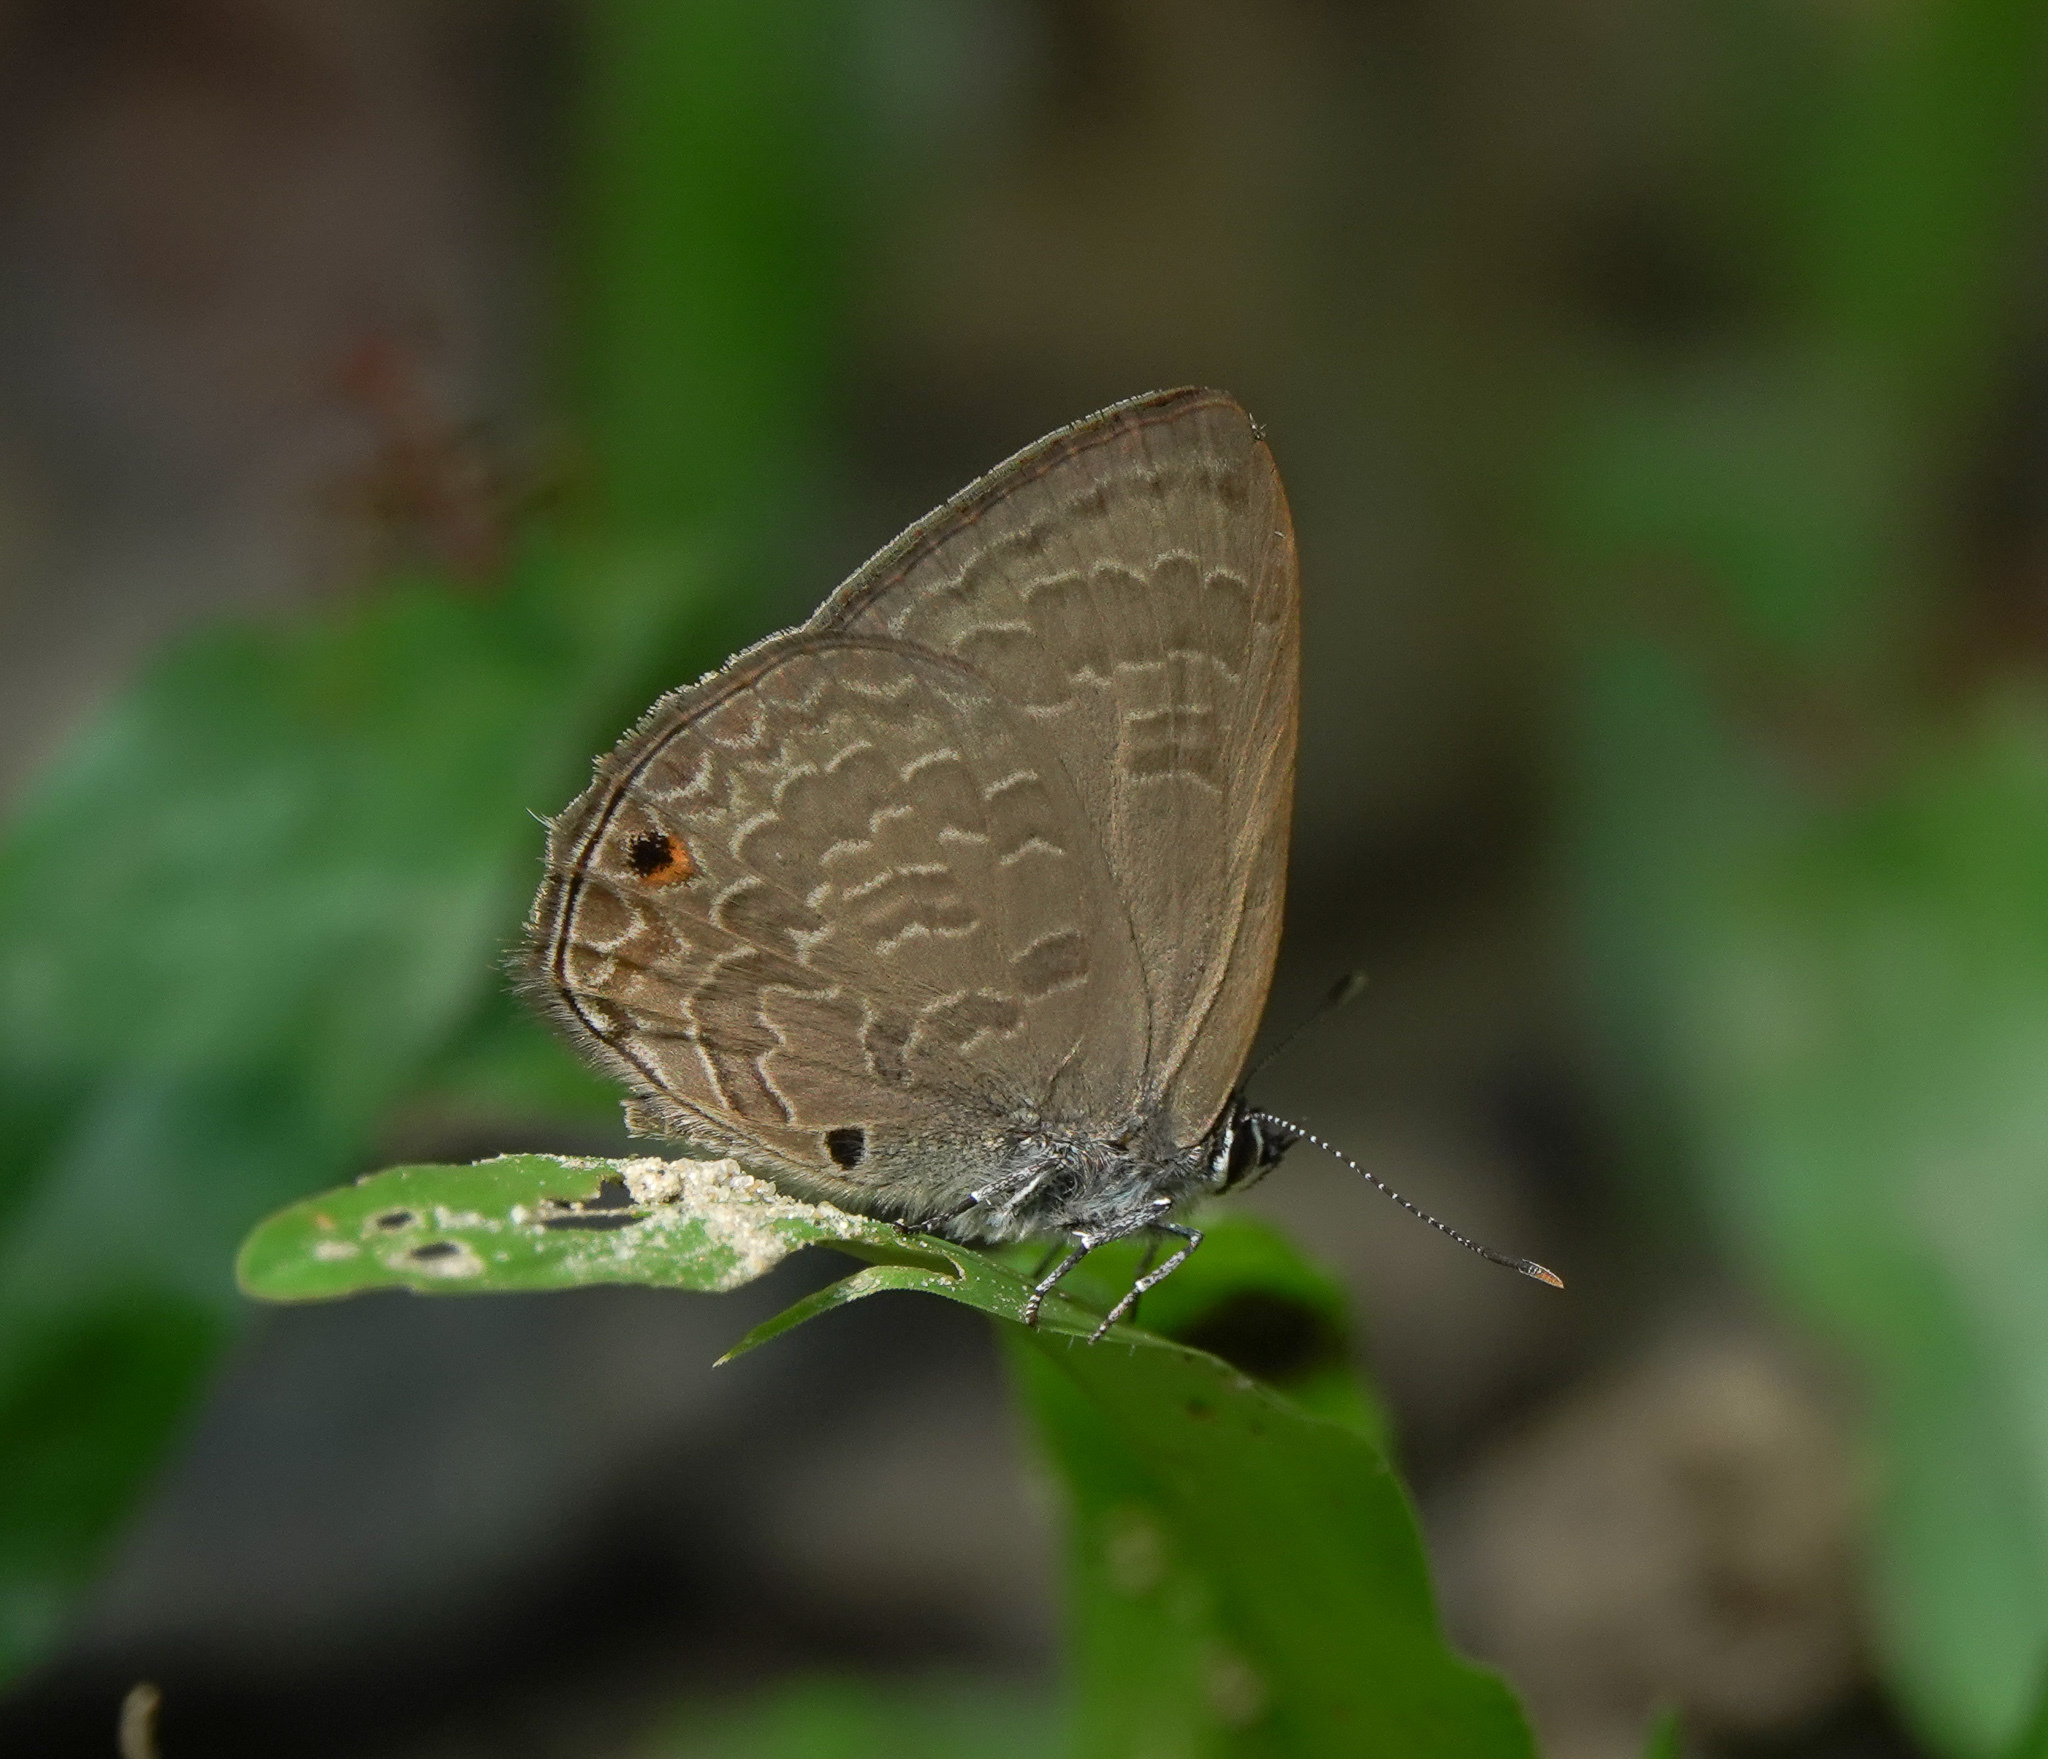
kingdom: Animalia
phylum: Arthropoda
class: Insecta
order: Lepidoptera
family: Lycaenidae
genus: Anthene
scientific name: Anthene emolus
